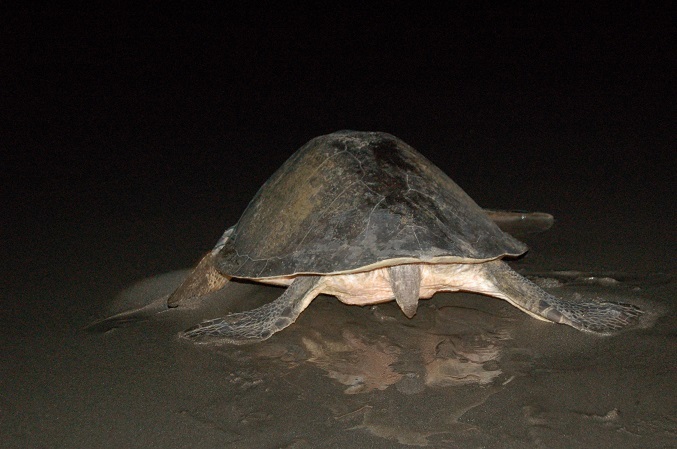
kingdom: Animalia
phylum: Chordata
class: Testudines
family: Cheloniidae
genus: Lepidochelys
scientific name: Lepidochelys olivacea
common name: Olive ridley
